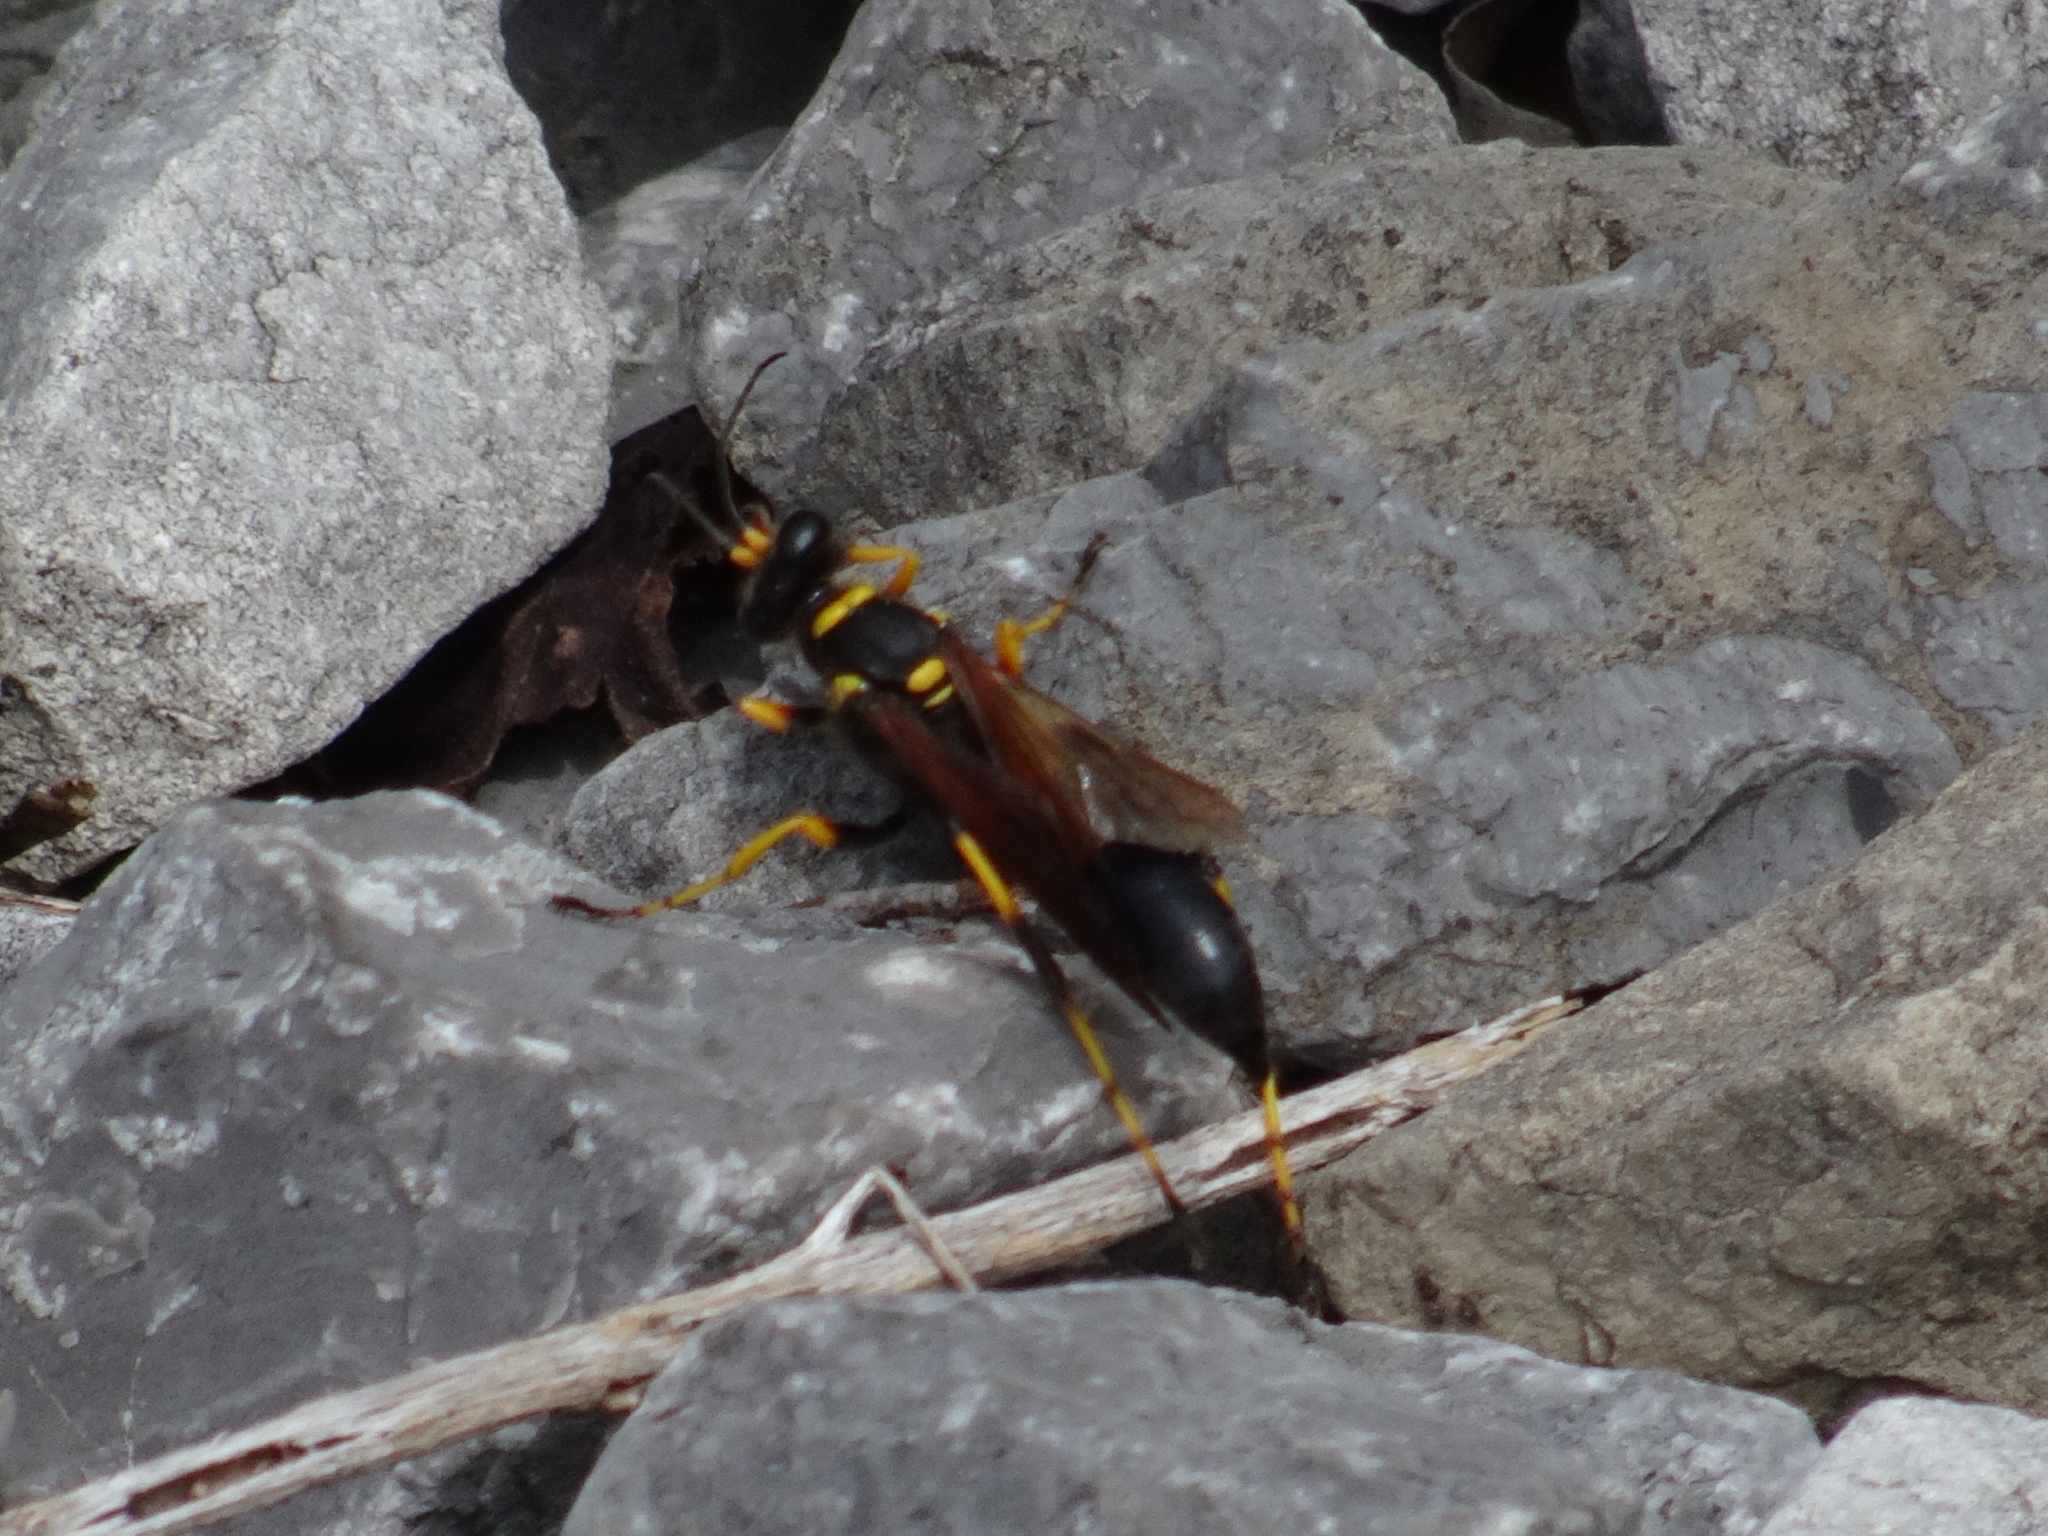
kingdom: Animalia
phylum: Arthropoda
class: Insecta
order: Hymenoptera
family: Sphecidae
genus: Sceliphron
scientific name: Sceliphron caementarium
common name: Mud dauber
